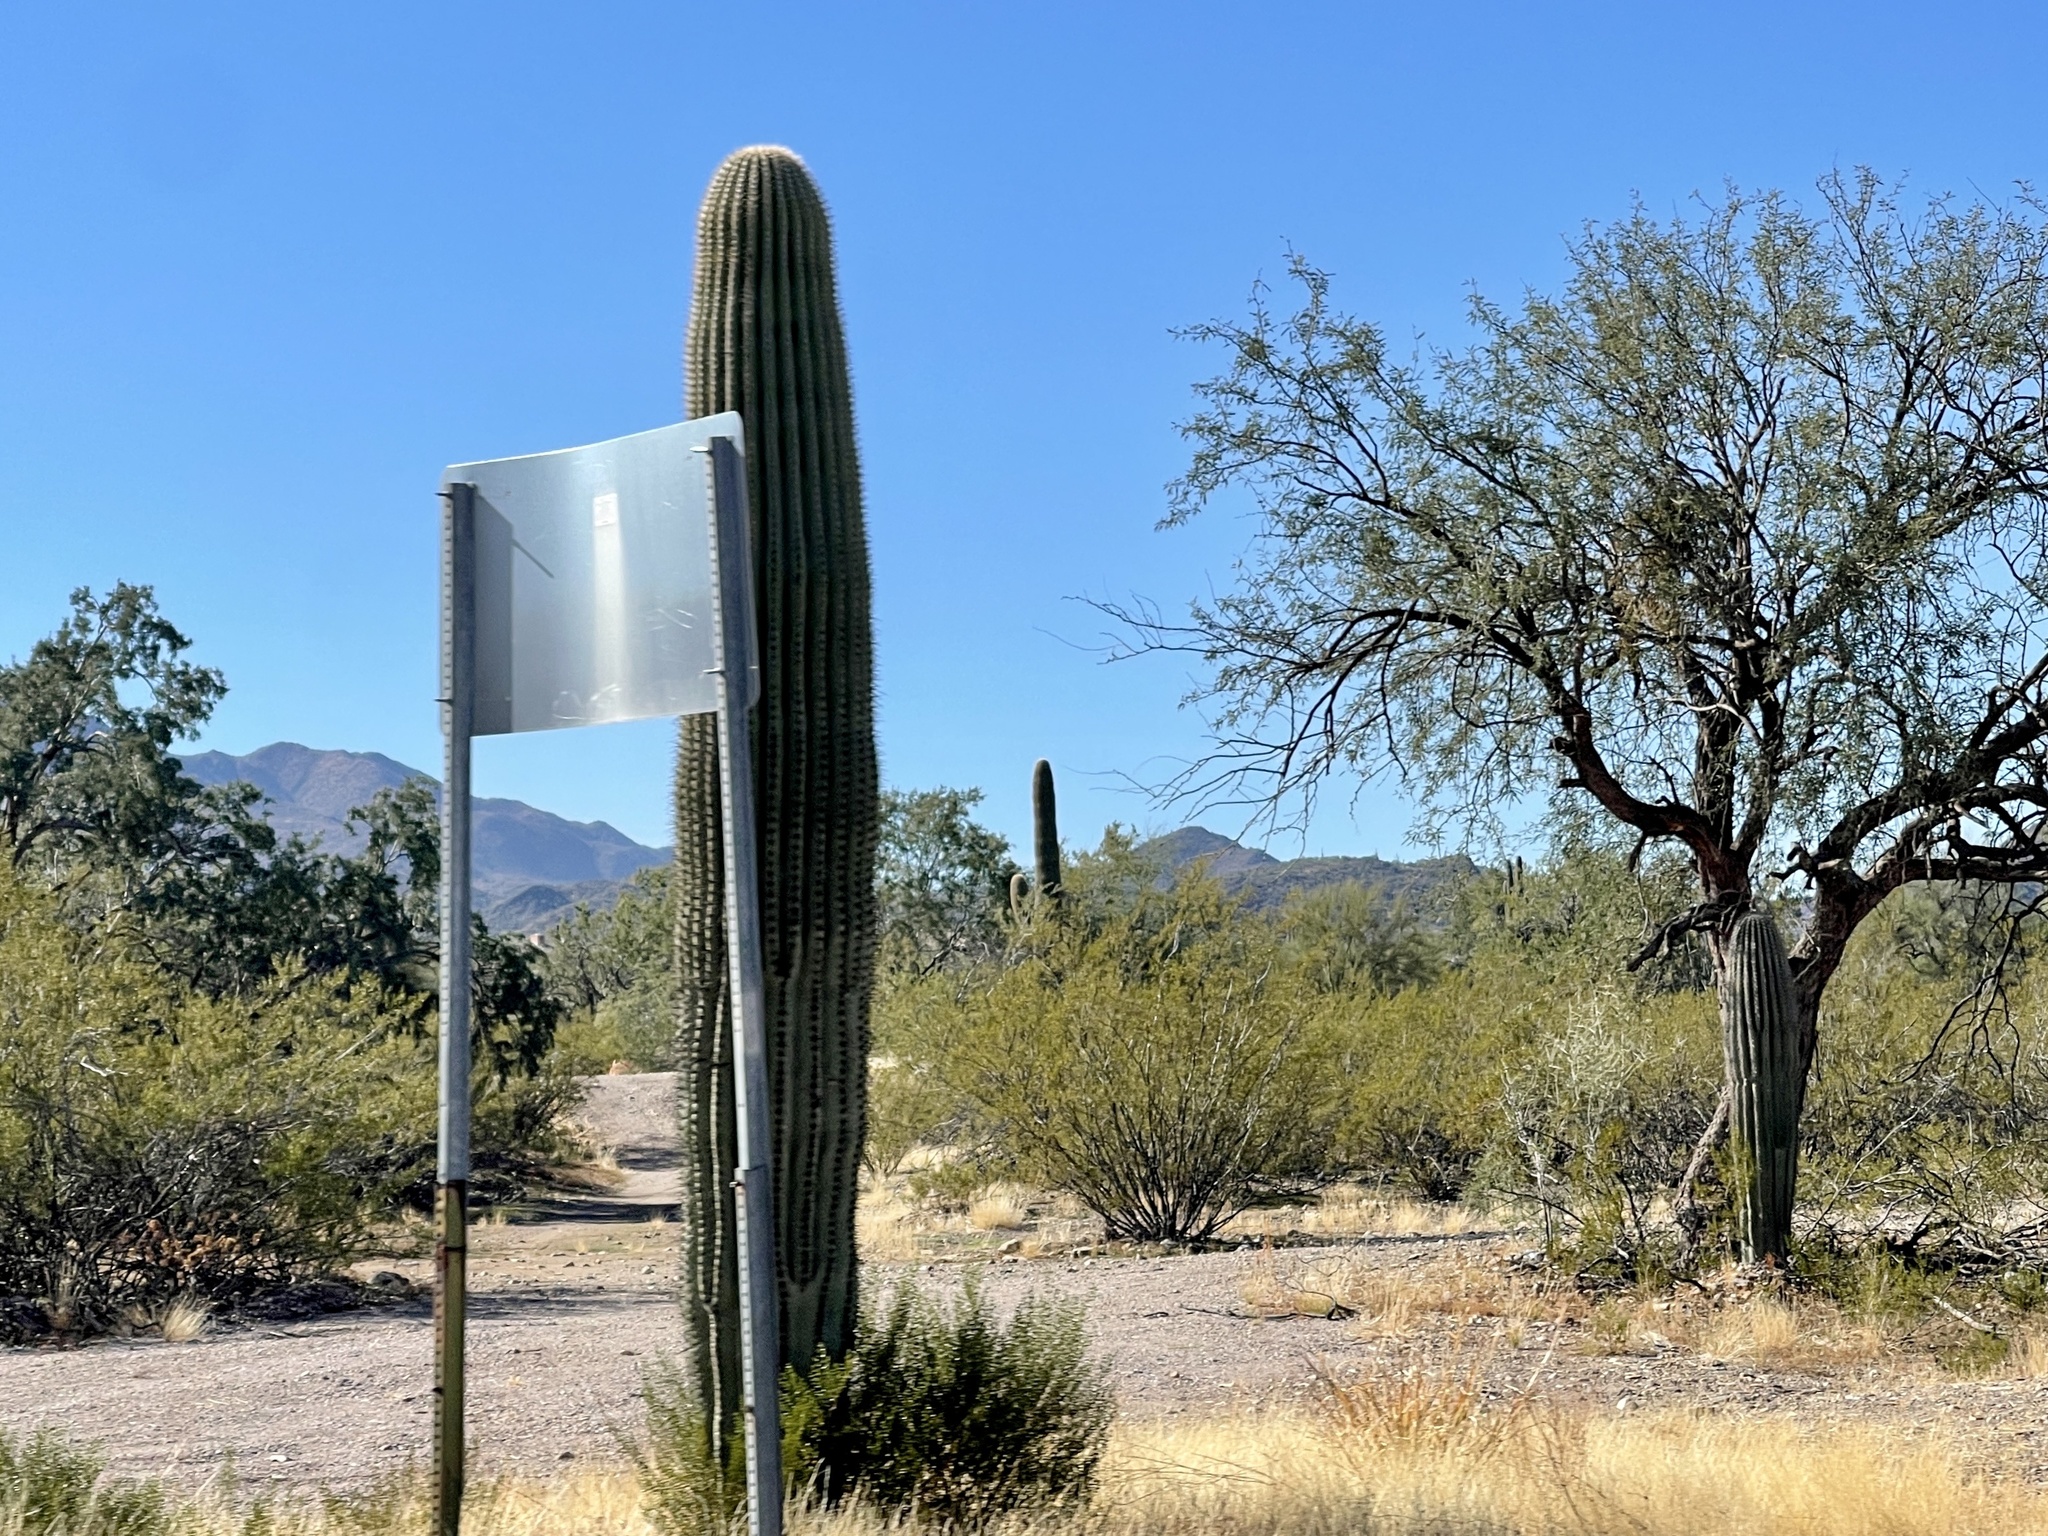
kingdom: Plantae
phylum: Tracheophyta
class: Magnoliopsida
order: Caryophyllales
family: Cactaceae
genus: Carnegiea
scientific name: Carnegiea gigantea
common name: Saguaro
